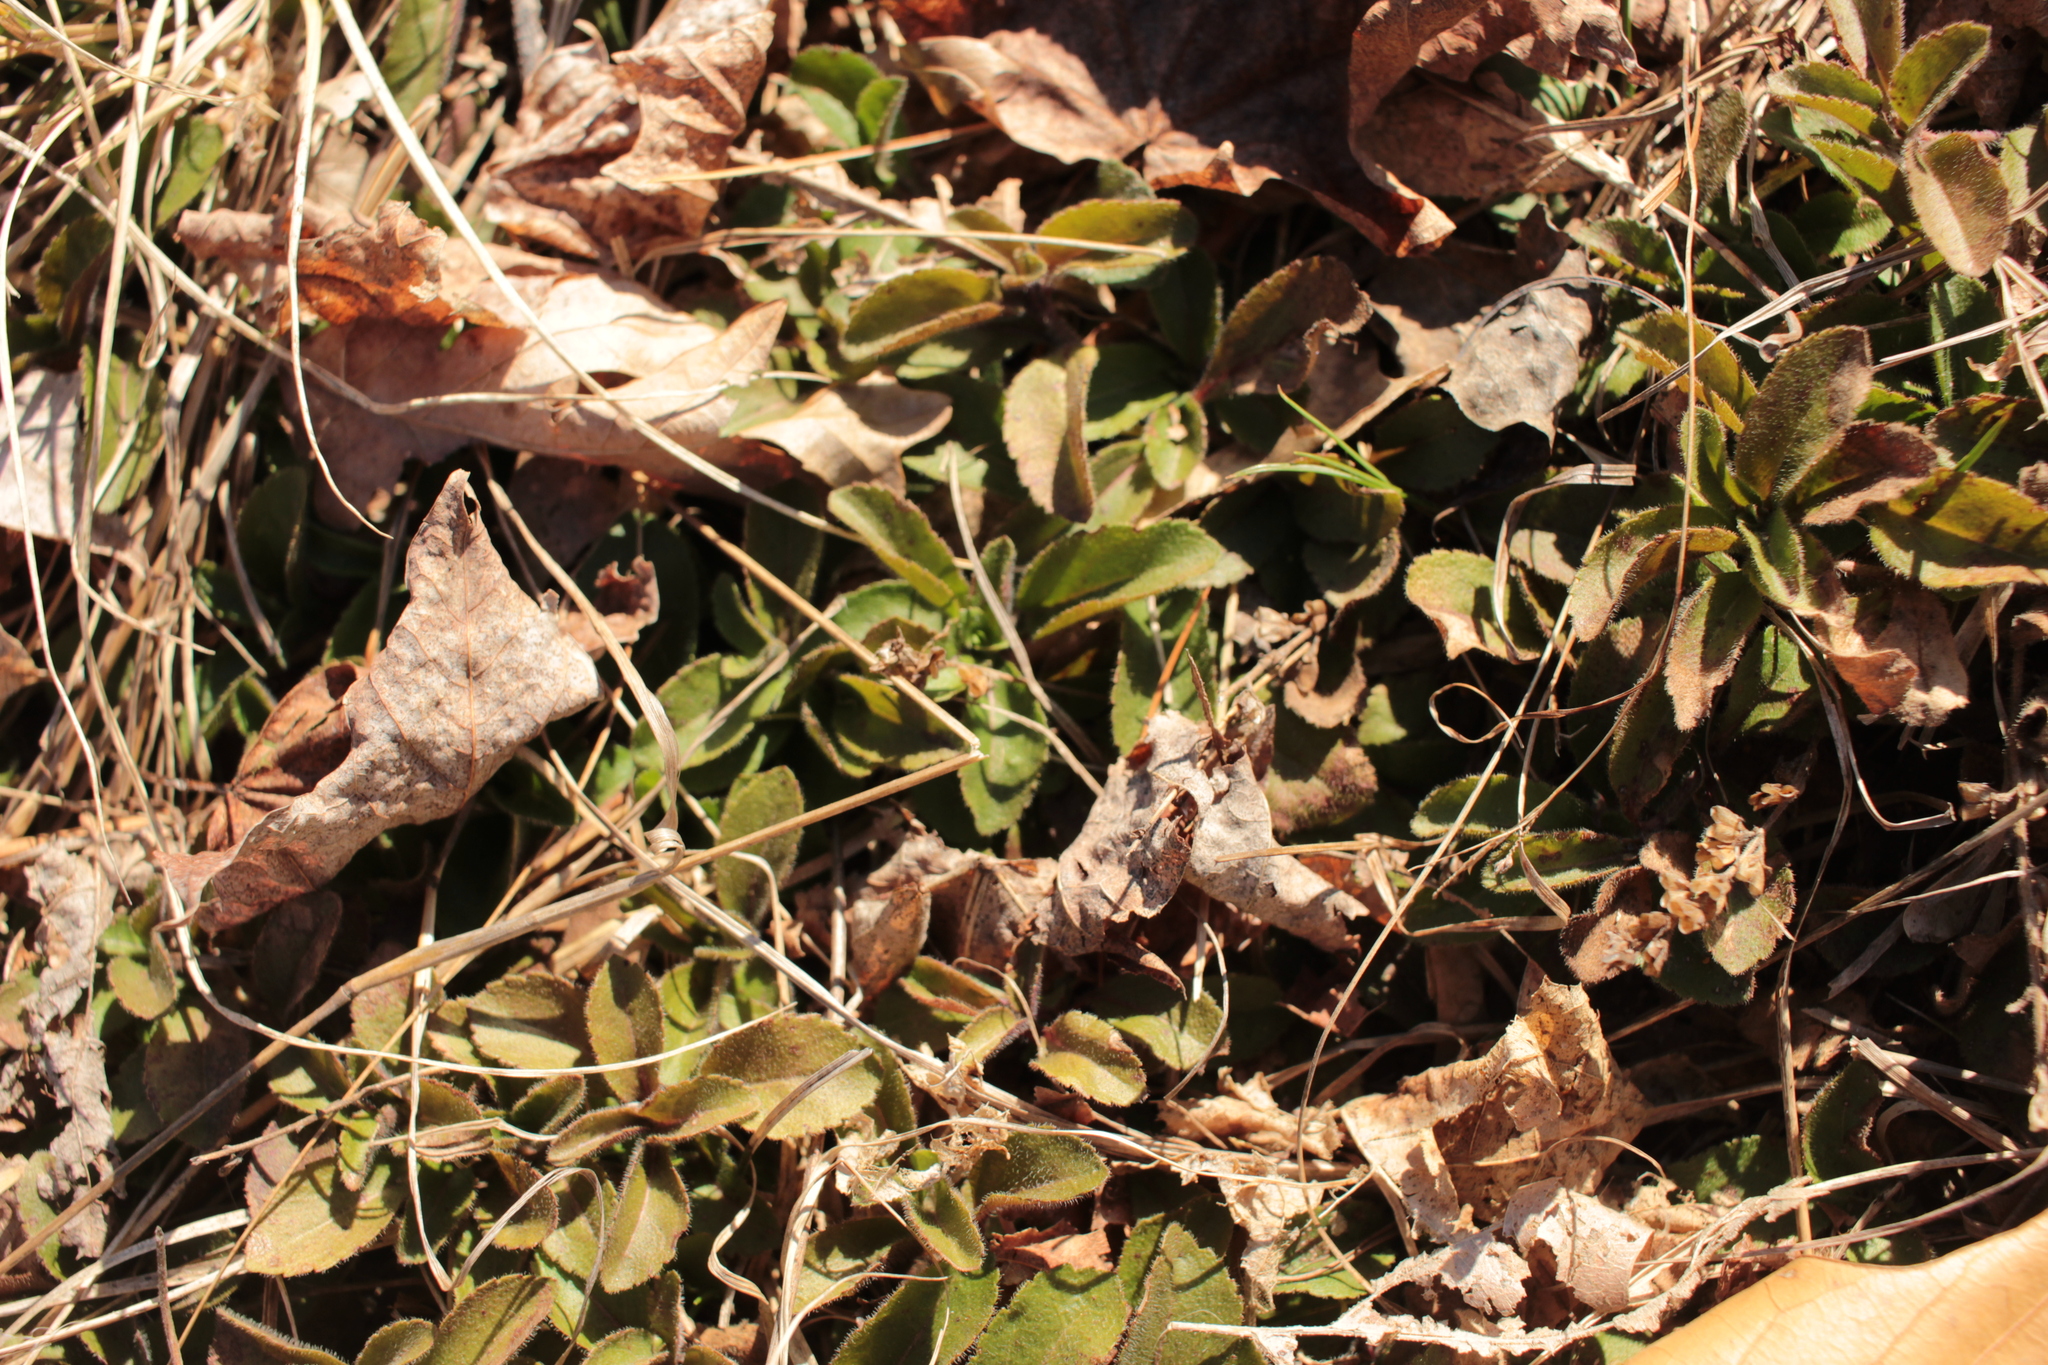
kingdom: Plantae
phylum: Tracheophyta
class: Magnoliopsida
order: Lamiales
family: Plantaginaceae
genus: Veronica
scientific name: Veronica officinalis
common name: Common speedwell
